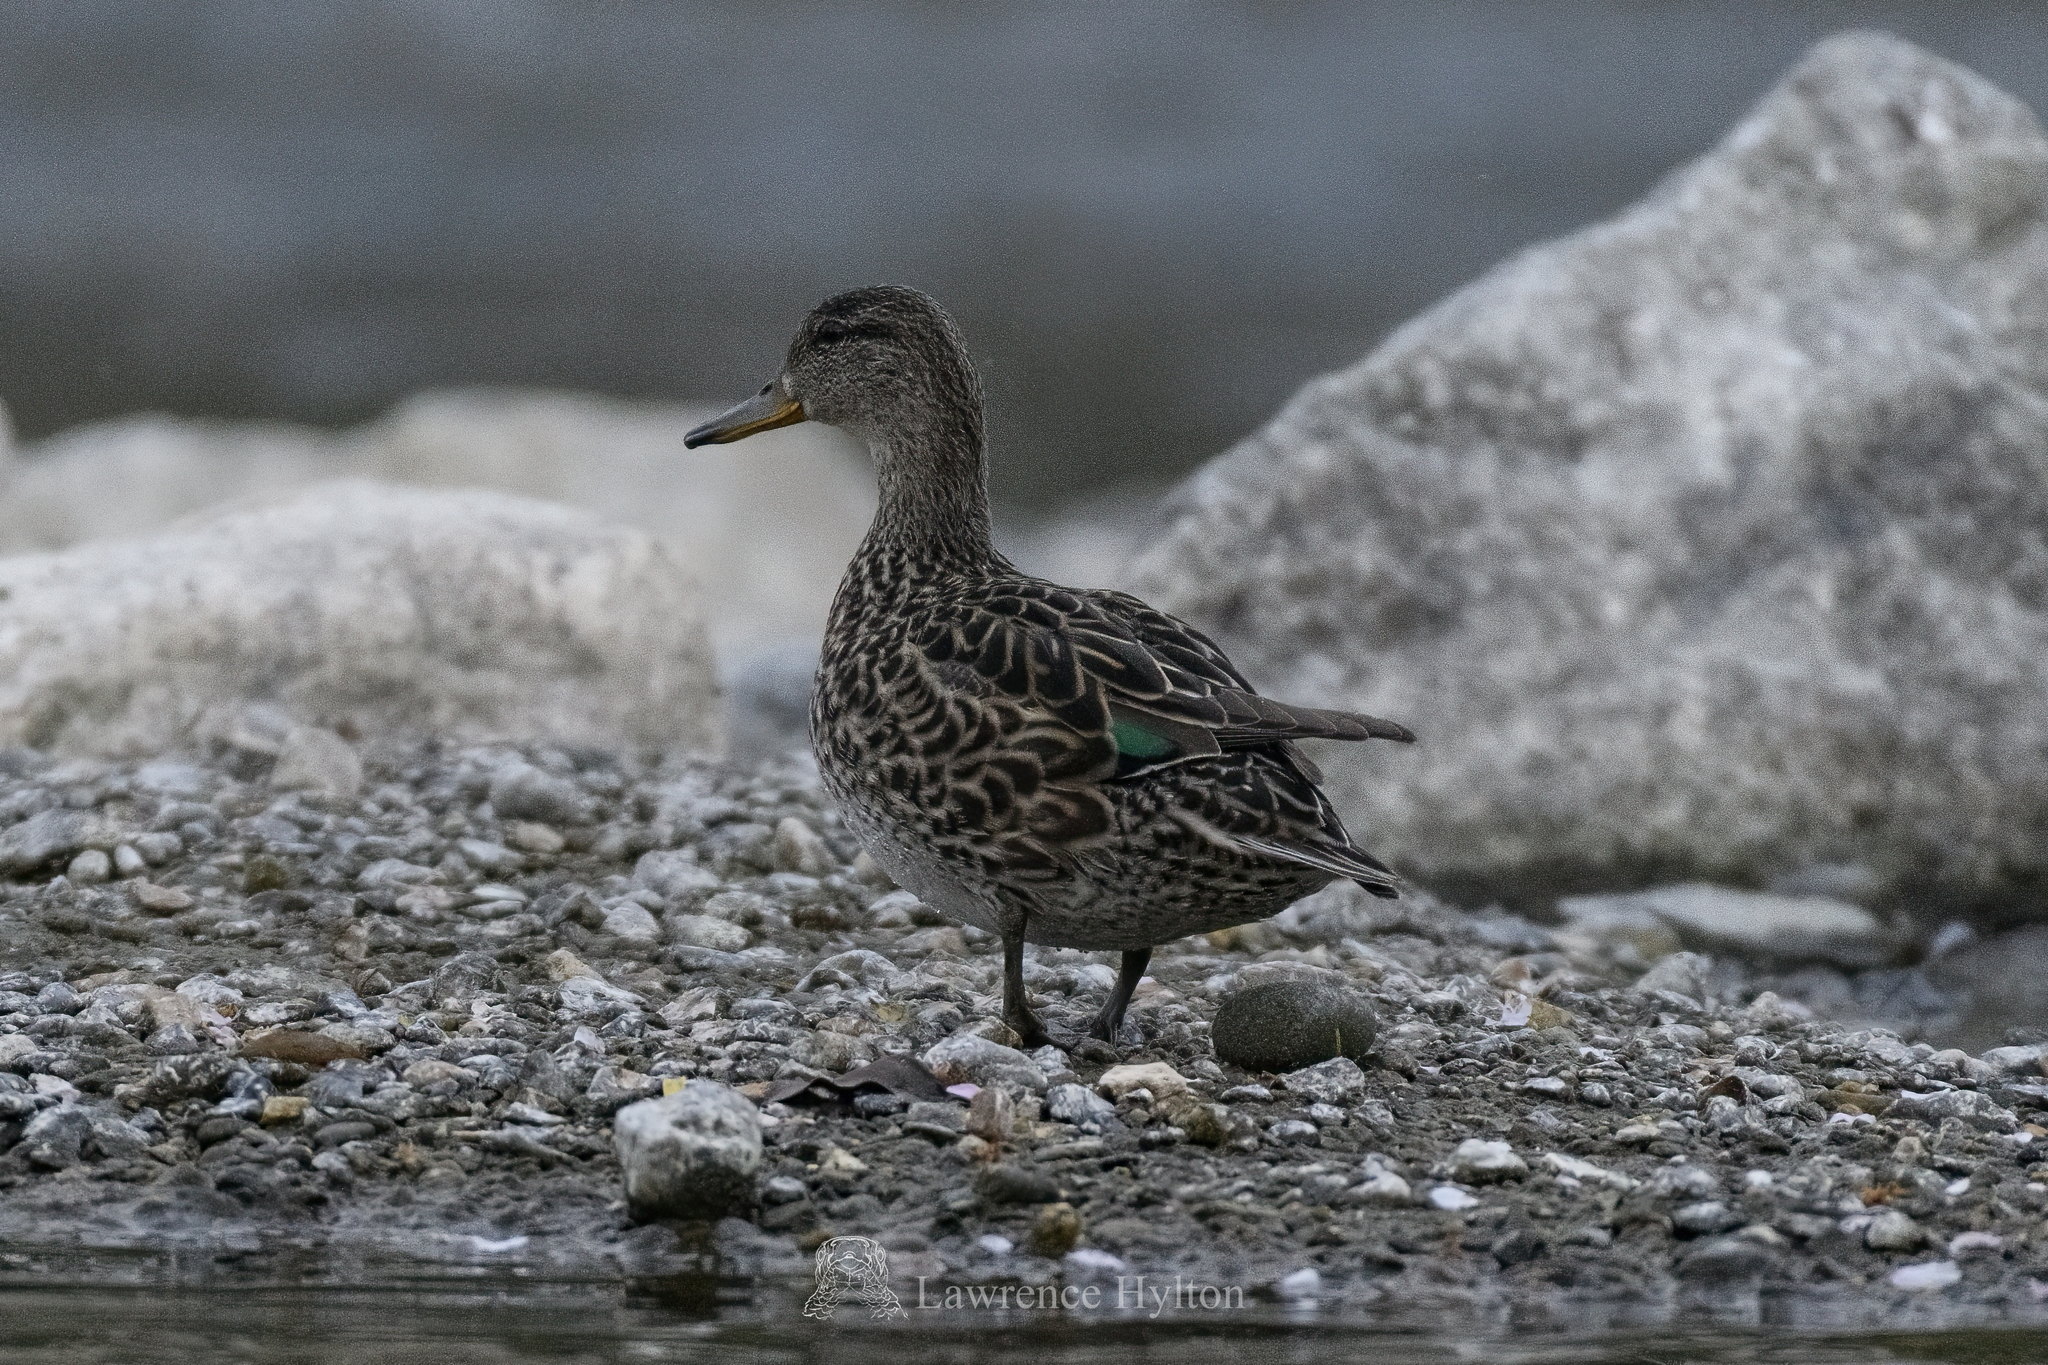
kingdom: Animalia
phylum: Chordata
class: Aves
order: Anseriformes
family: Anatidae
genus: Anas
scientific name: Anas crecca
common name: Eurasian teal
